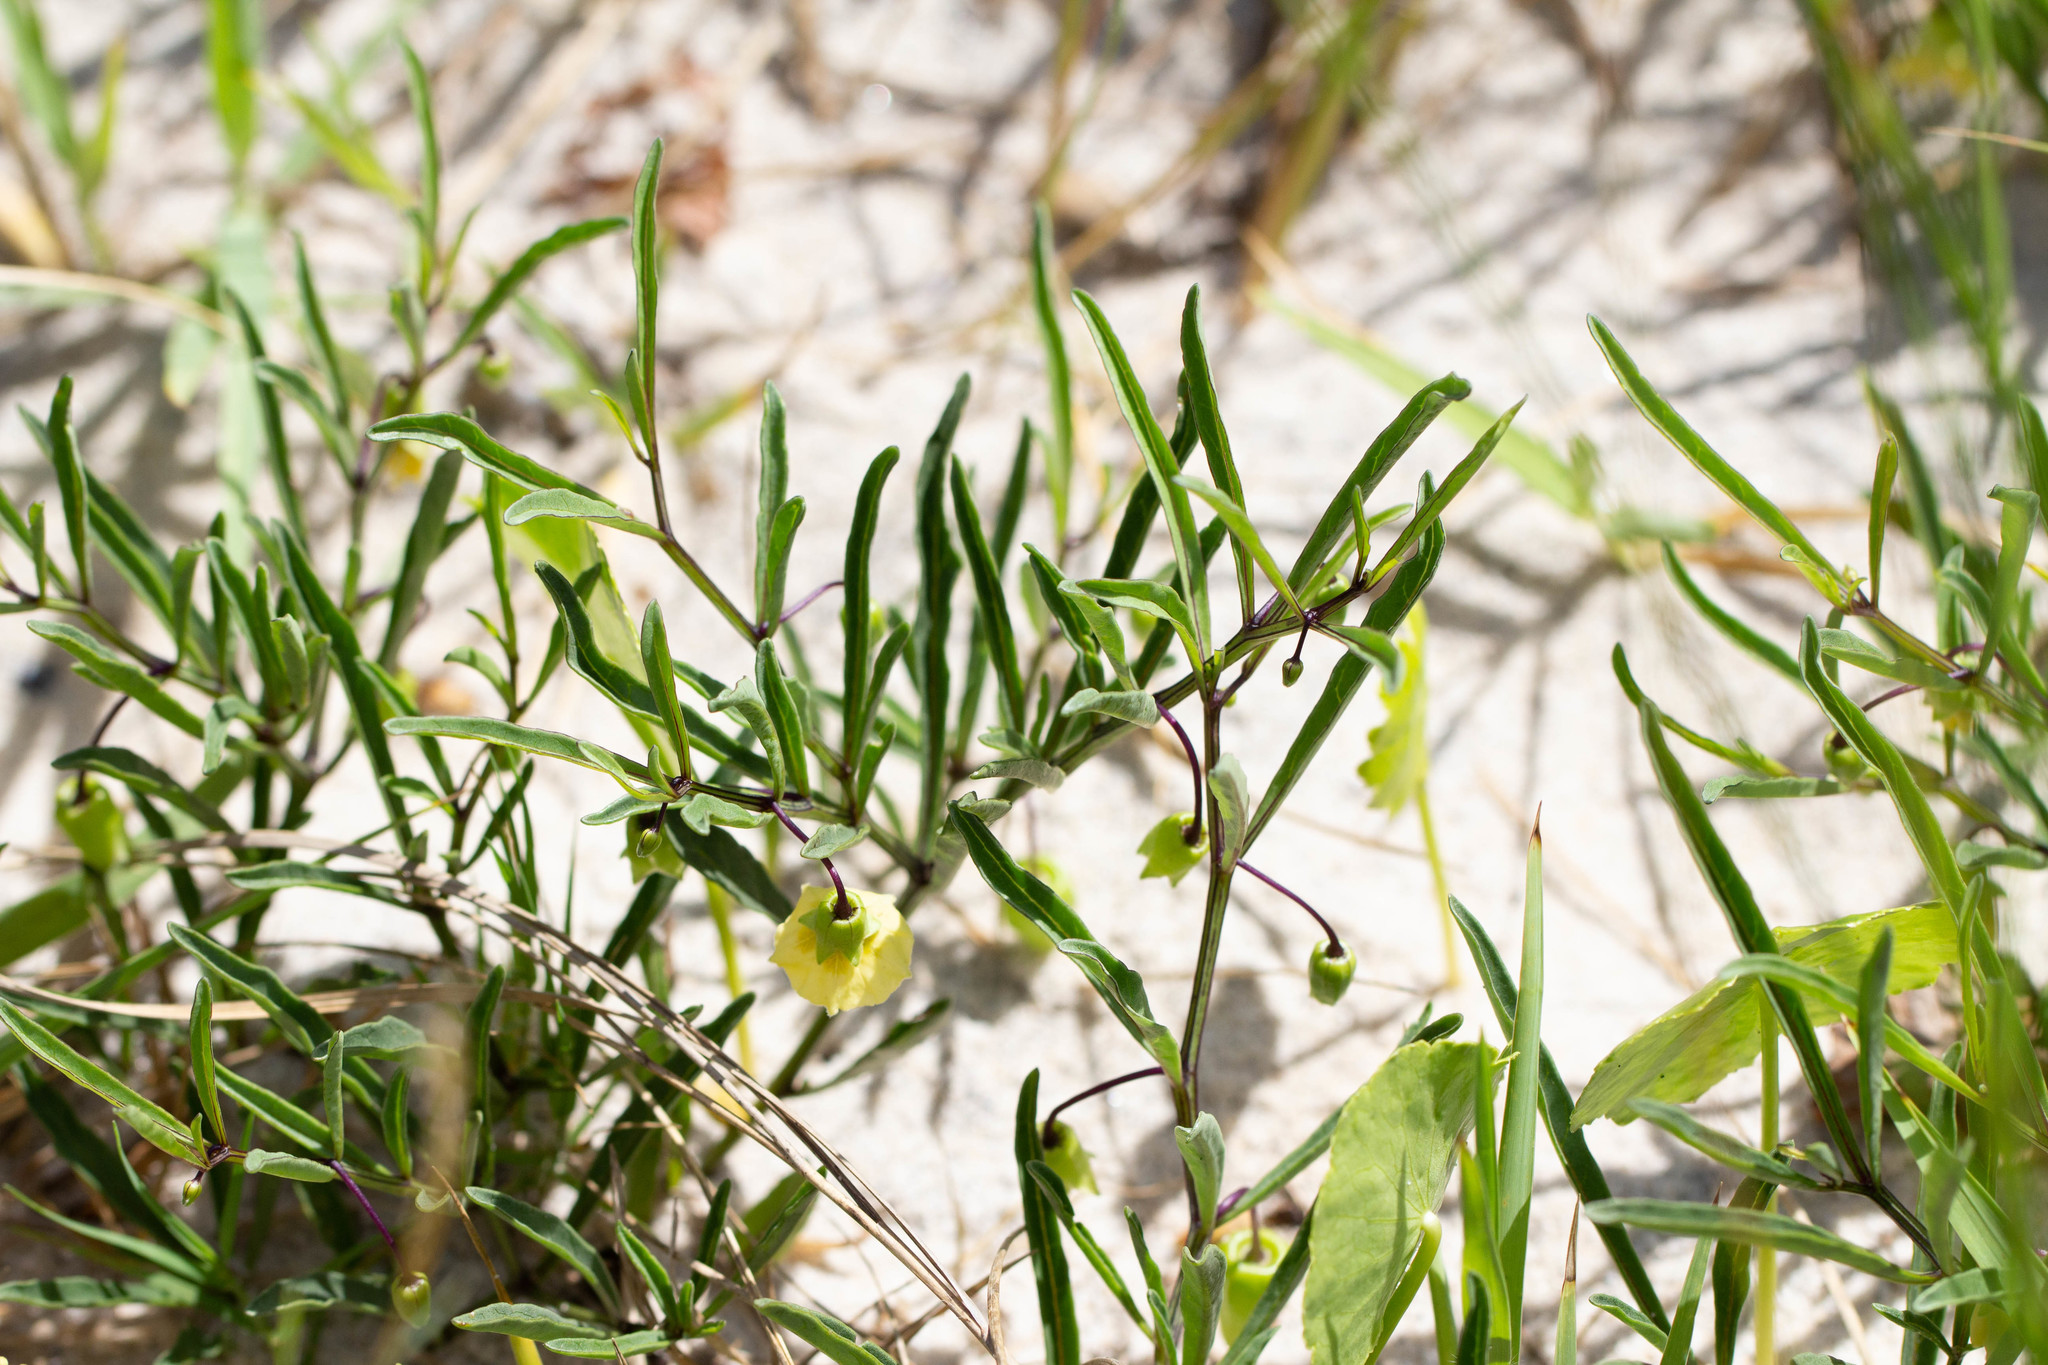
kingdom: Plantae
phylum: Tracheophyta
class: Magnoliopsida
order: Solanales
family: Solanaceae
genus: Physalis
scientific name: Physalis angustifolia
